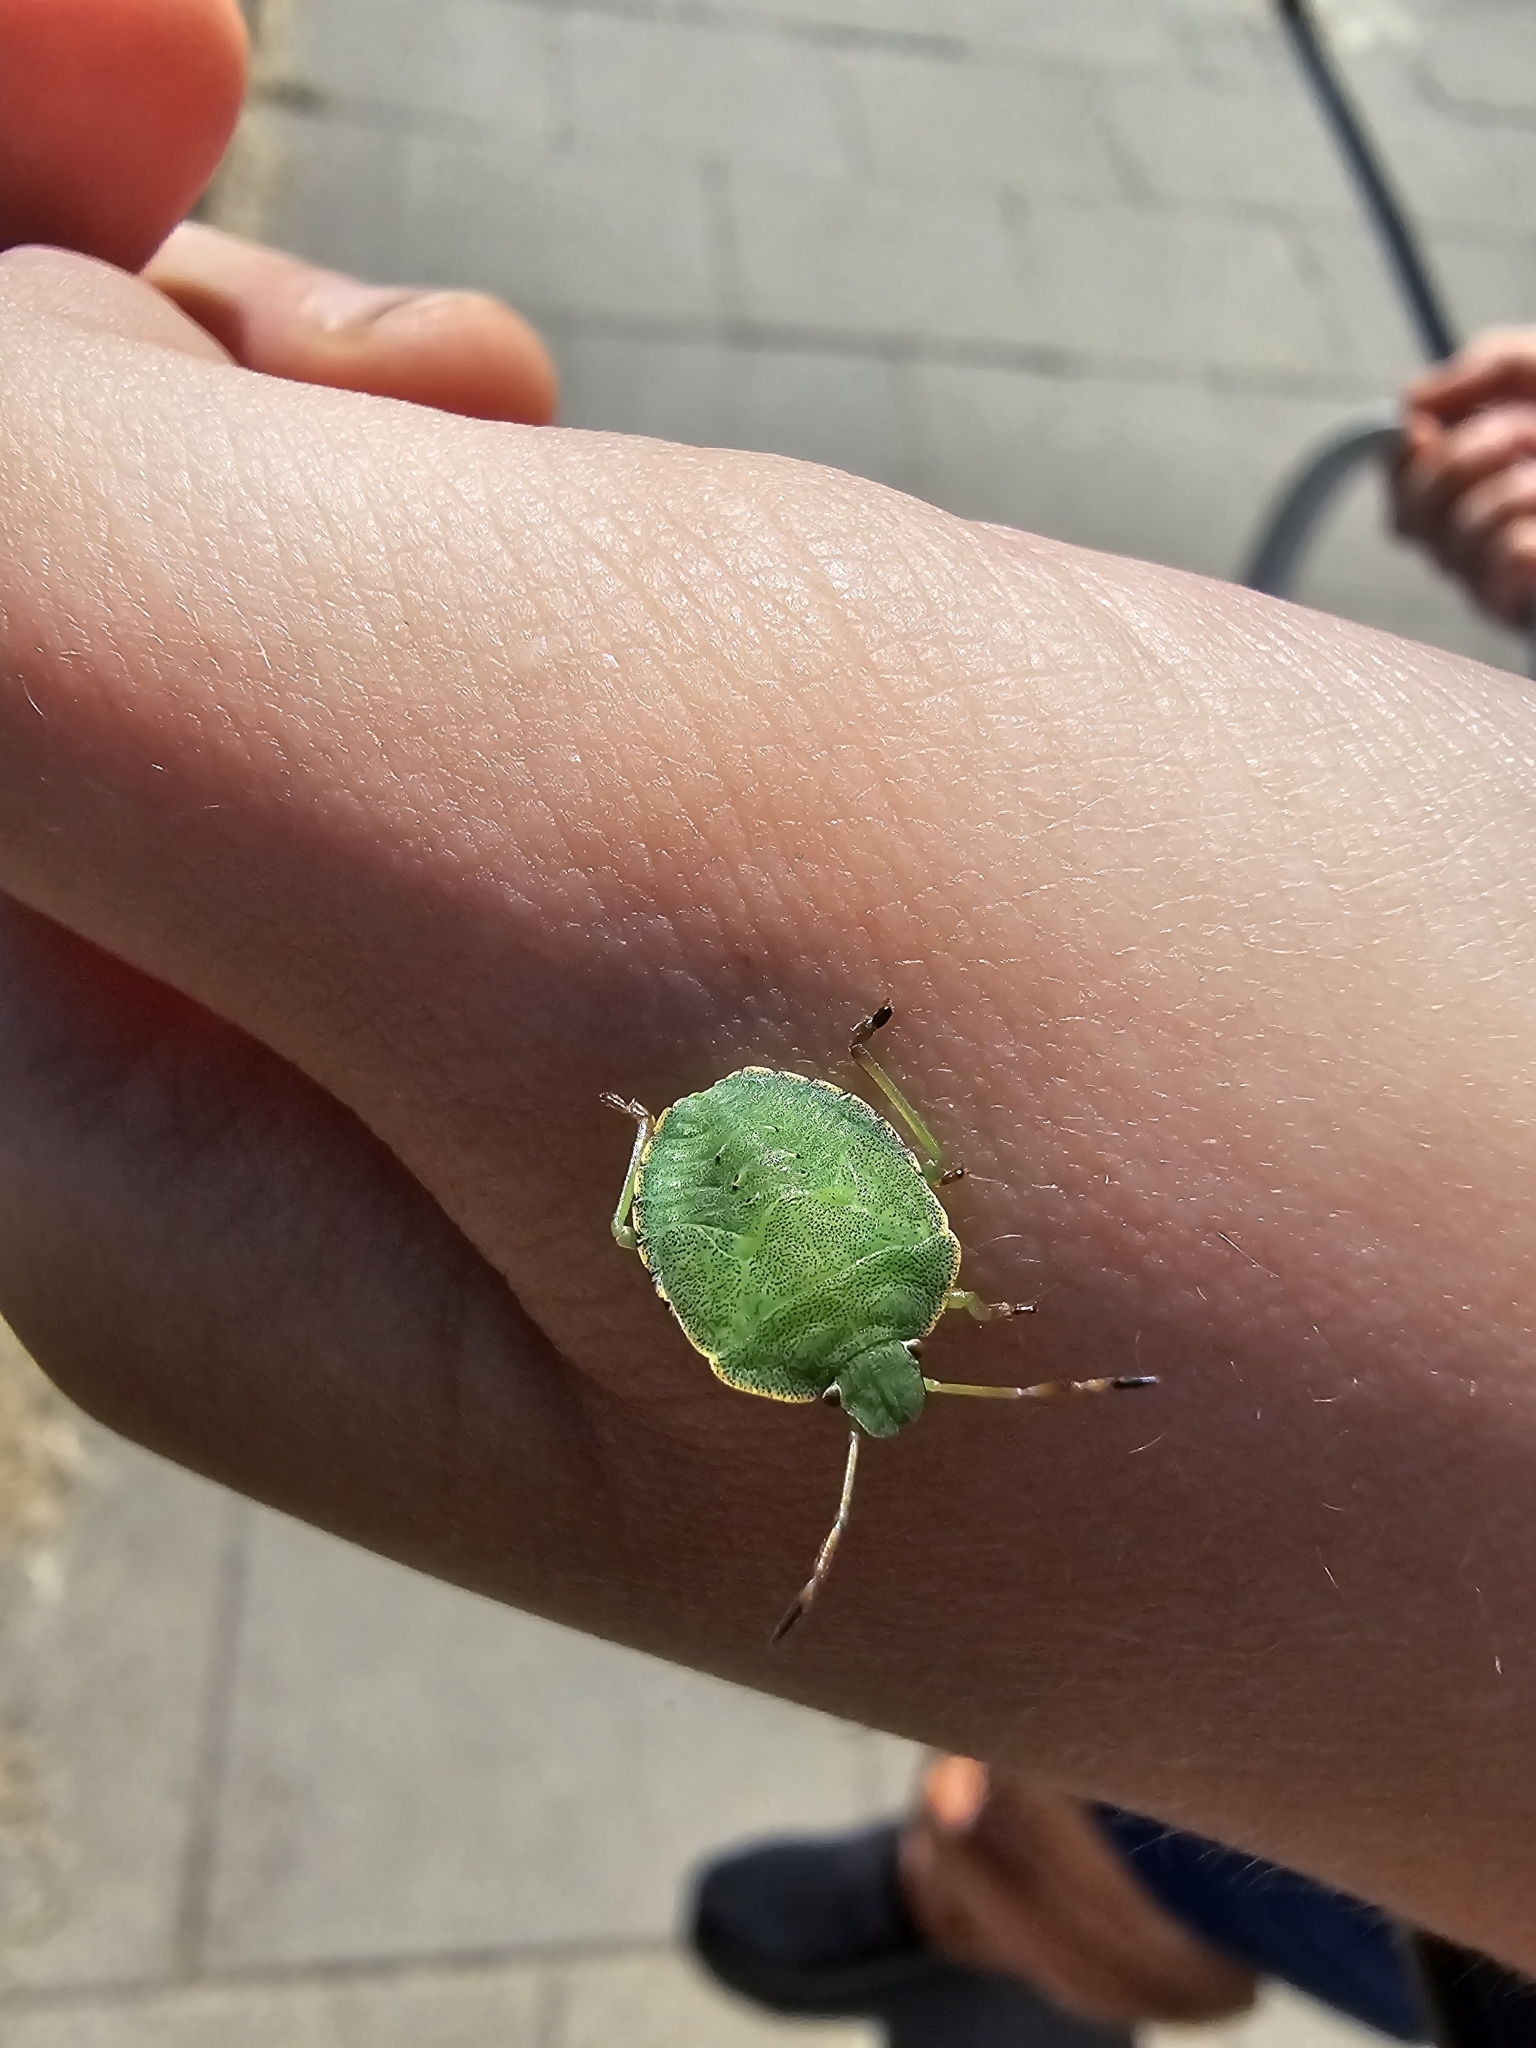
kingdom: Animalia
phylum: Arthropoda
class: Insecta
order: Hemiptera
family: Pentatomidae
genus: Palomena
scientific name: Palomena prasina
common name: Green shieldbug
